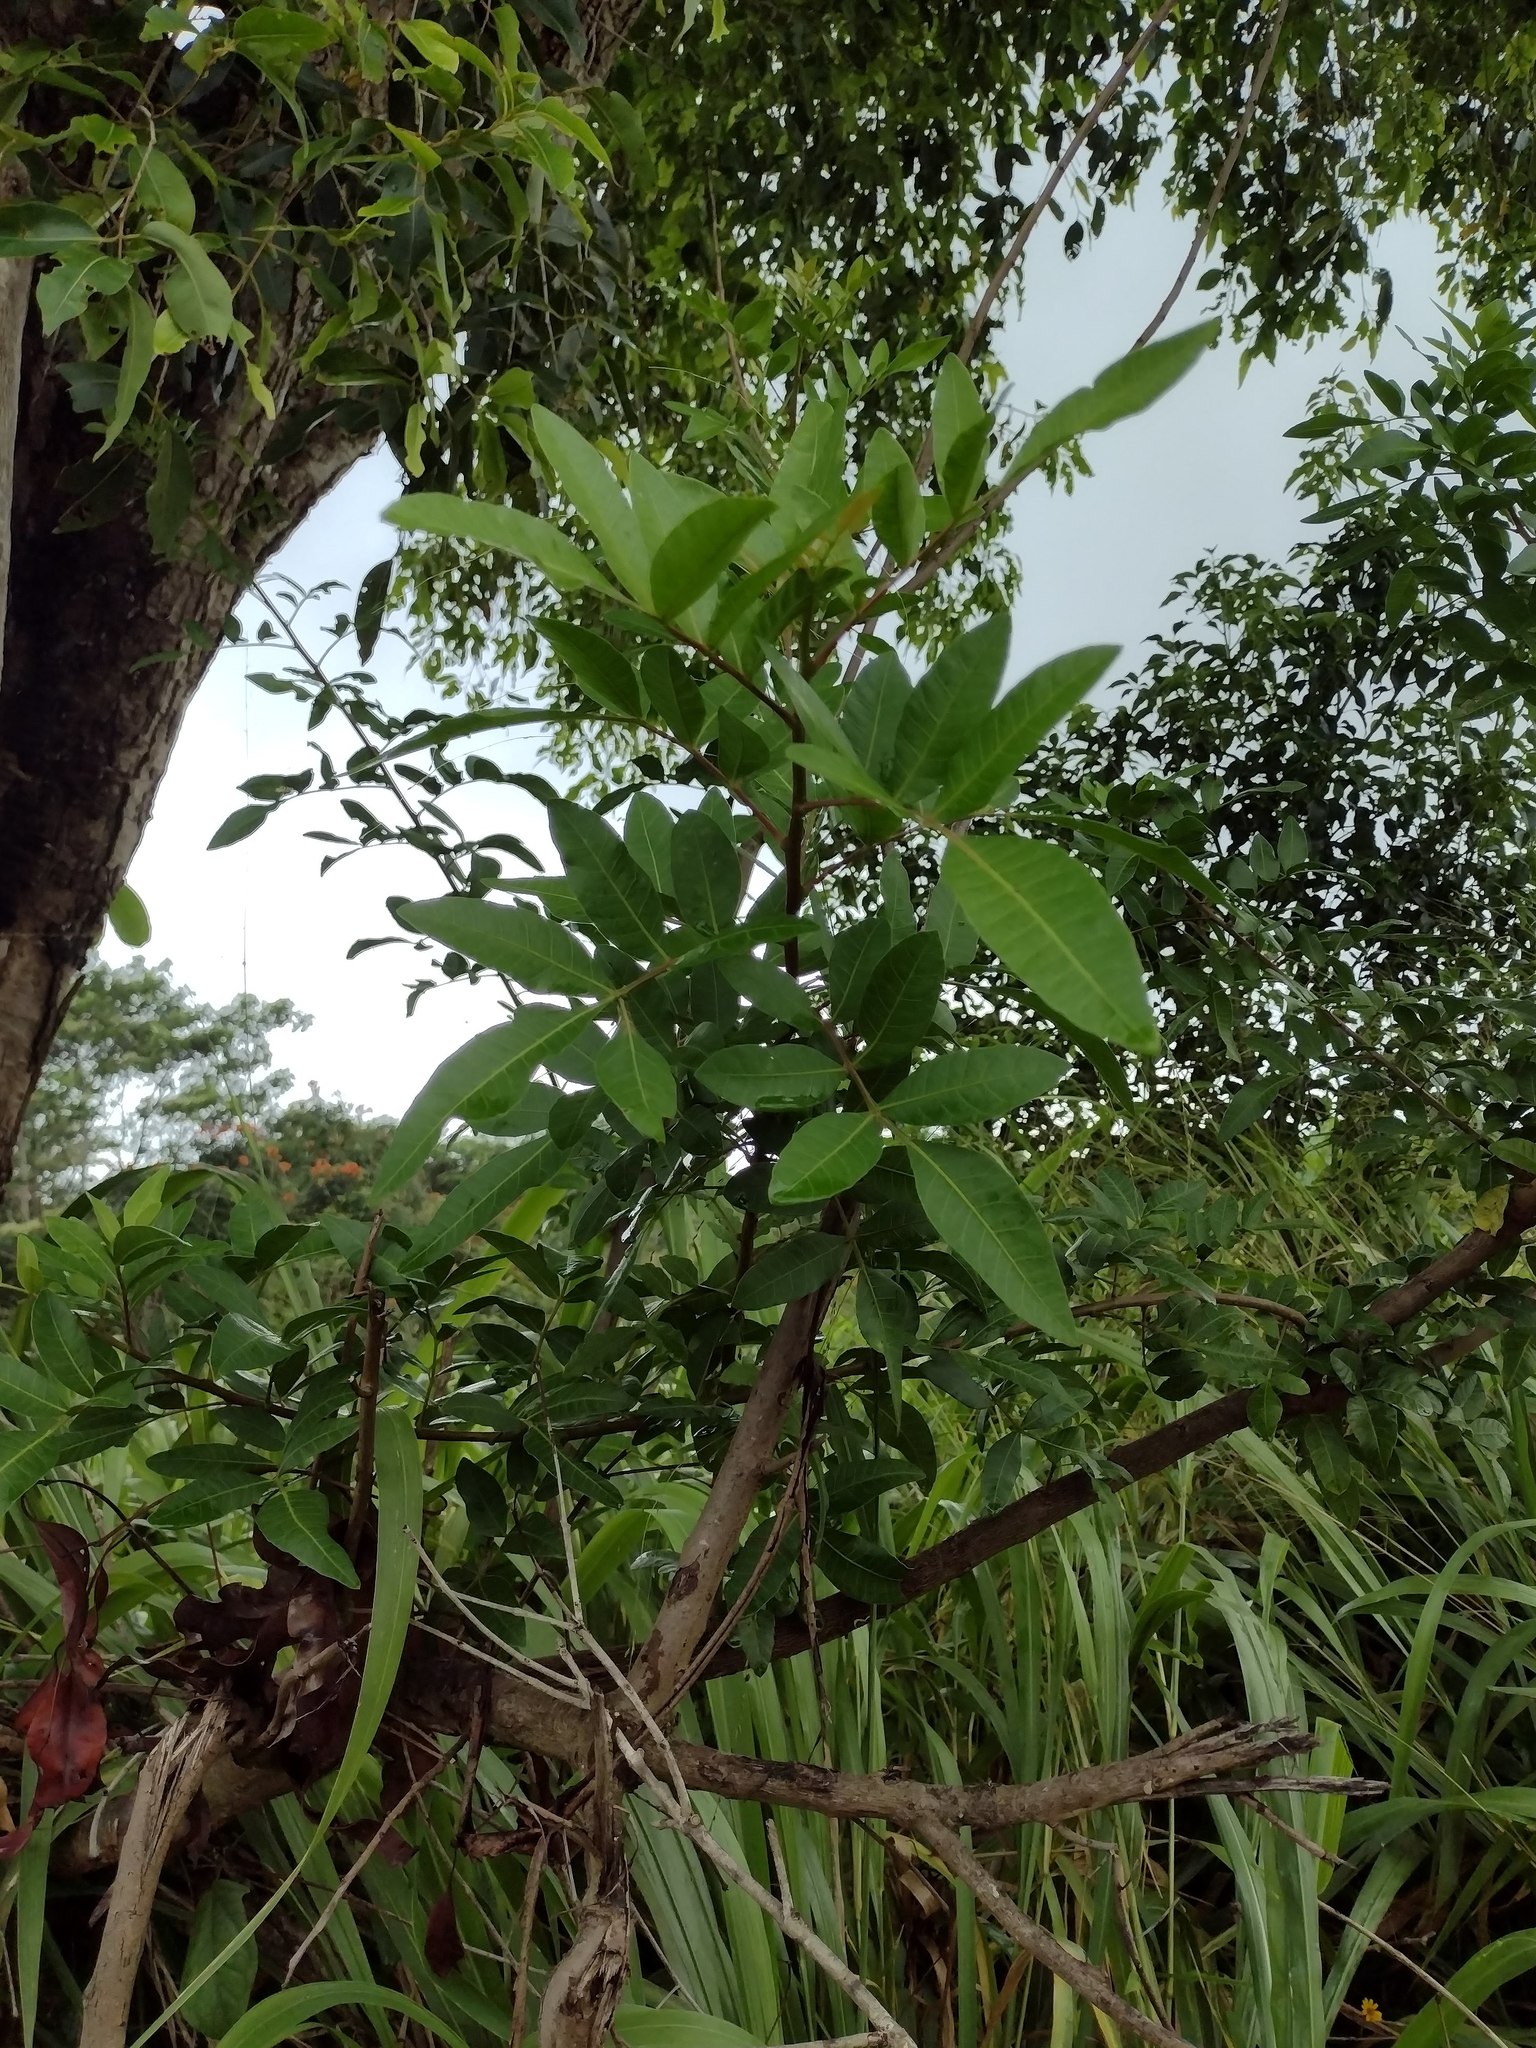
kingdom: Plantae
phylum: Tracheophyta
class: Magnoliopsida
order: Sapindales
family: Anacardiaceae
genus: Schinus
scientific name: Schinus terebinthifolia
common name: Brazilian peppertree
